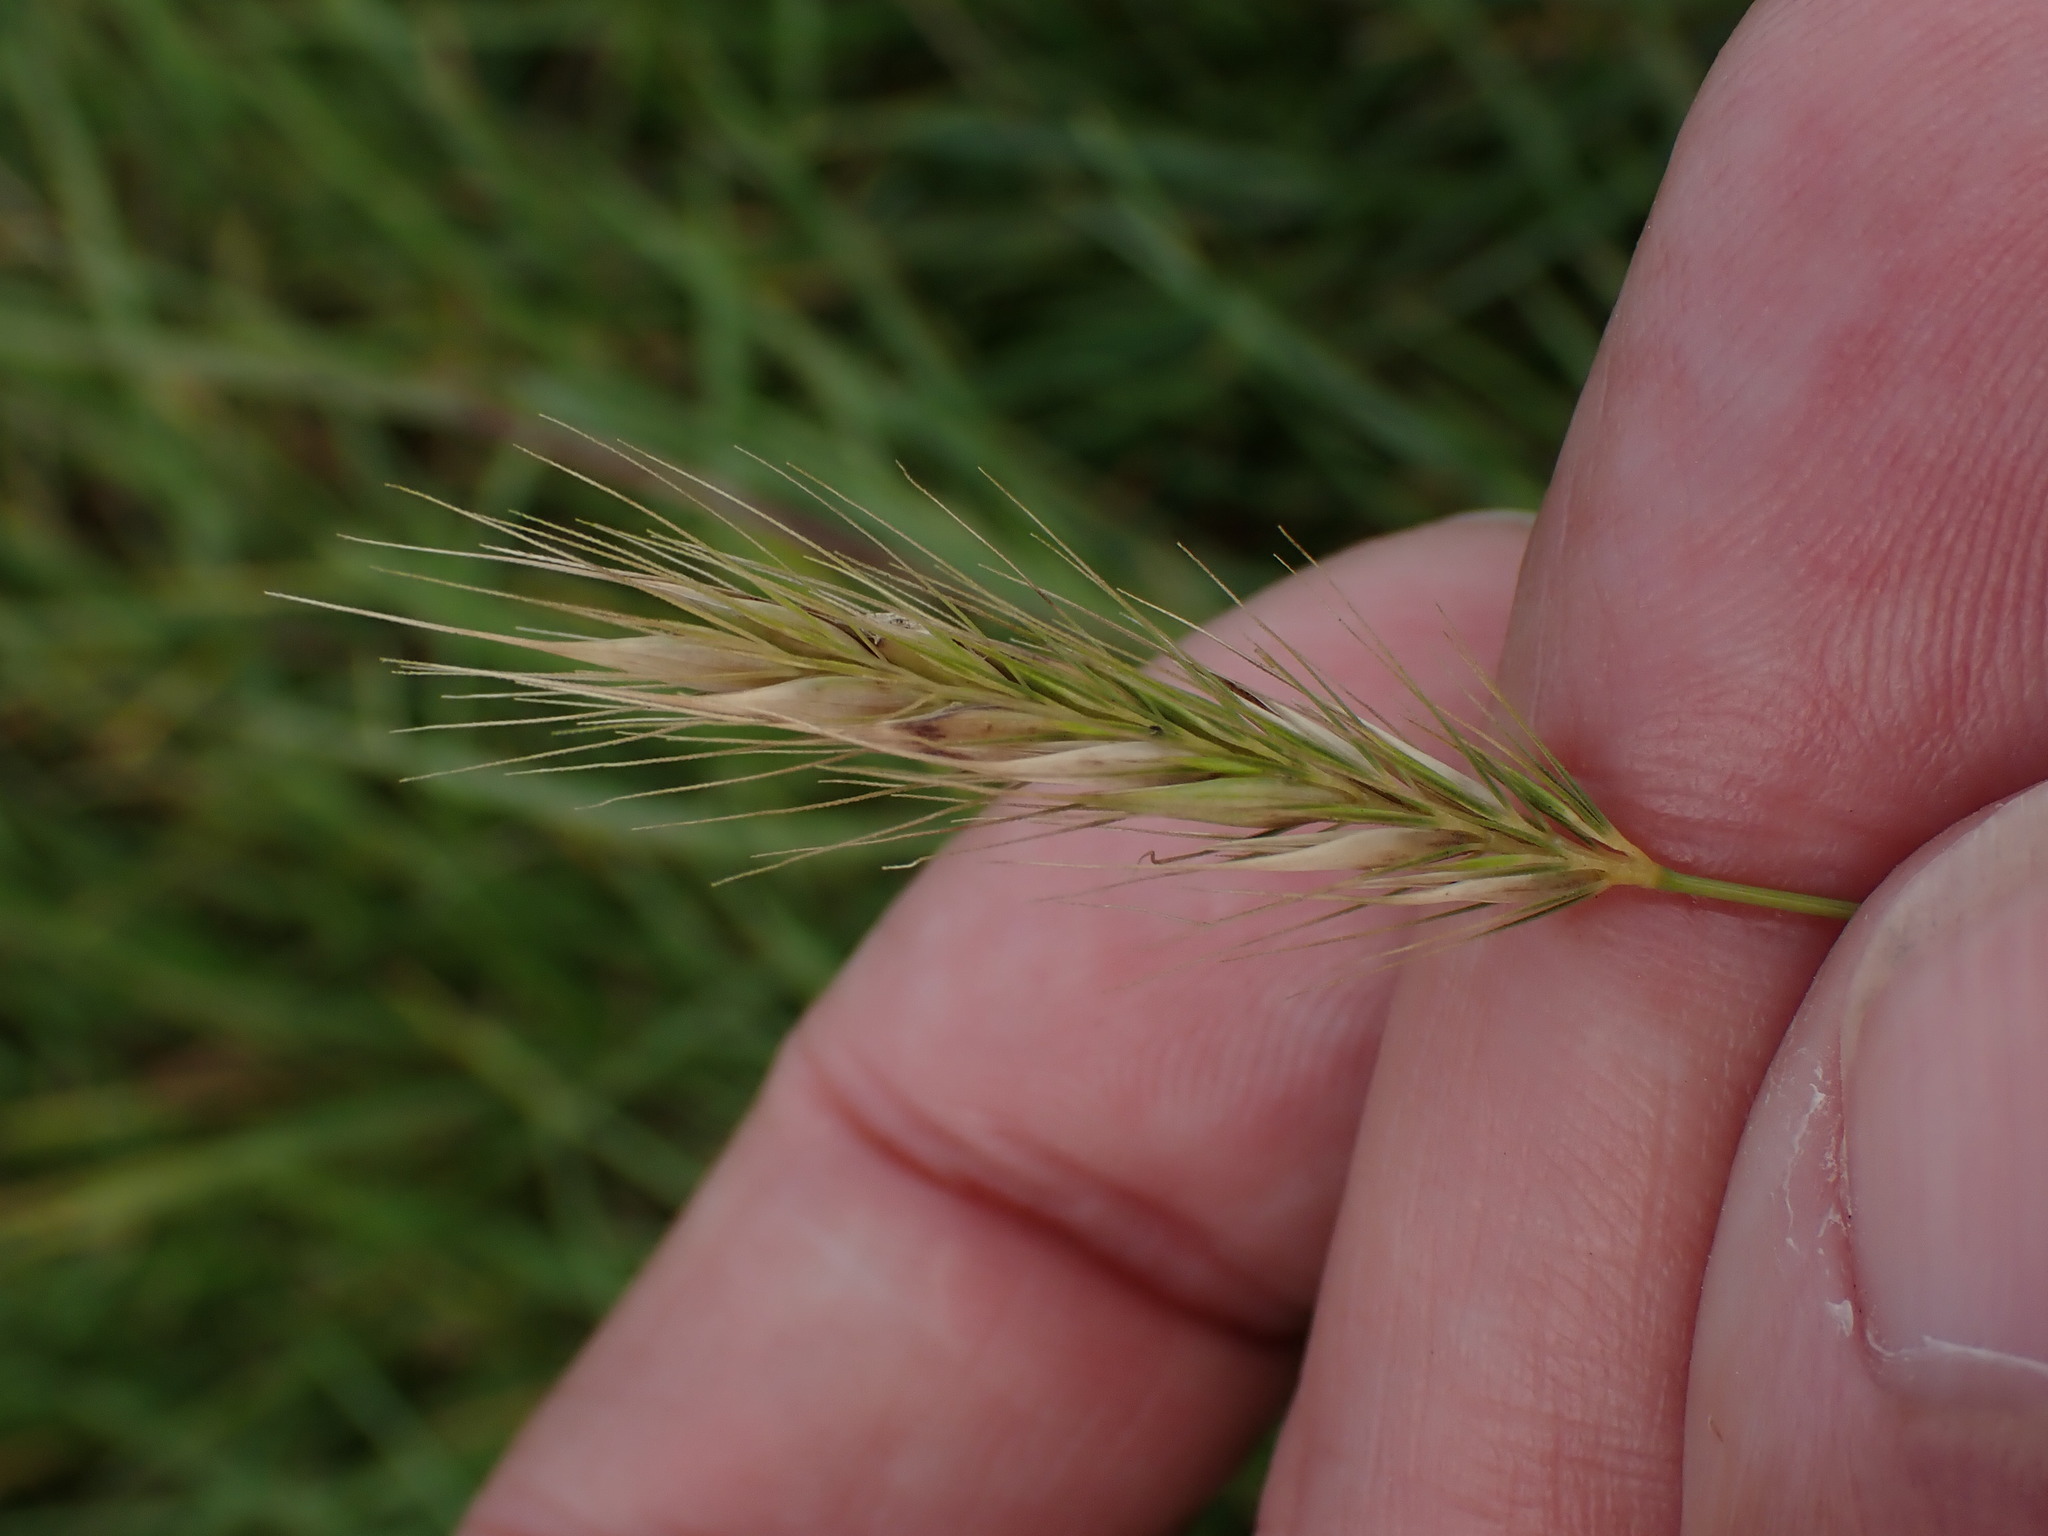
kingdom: Plantae
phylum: Tracheophyta
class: Liliopsida
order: Poales
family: Poaceae
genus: Hordeum
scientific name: Hordeum secalinum
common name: Meadow barley
